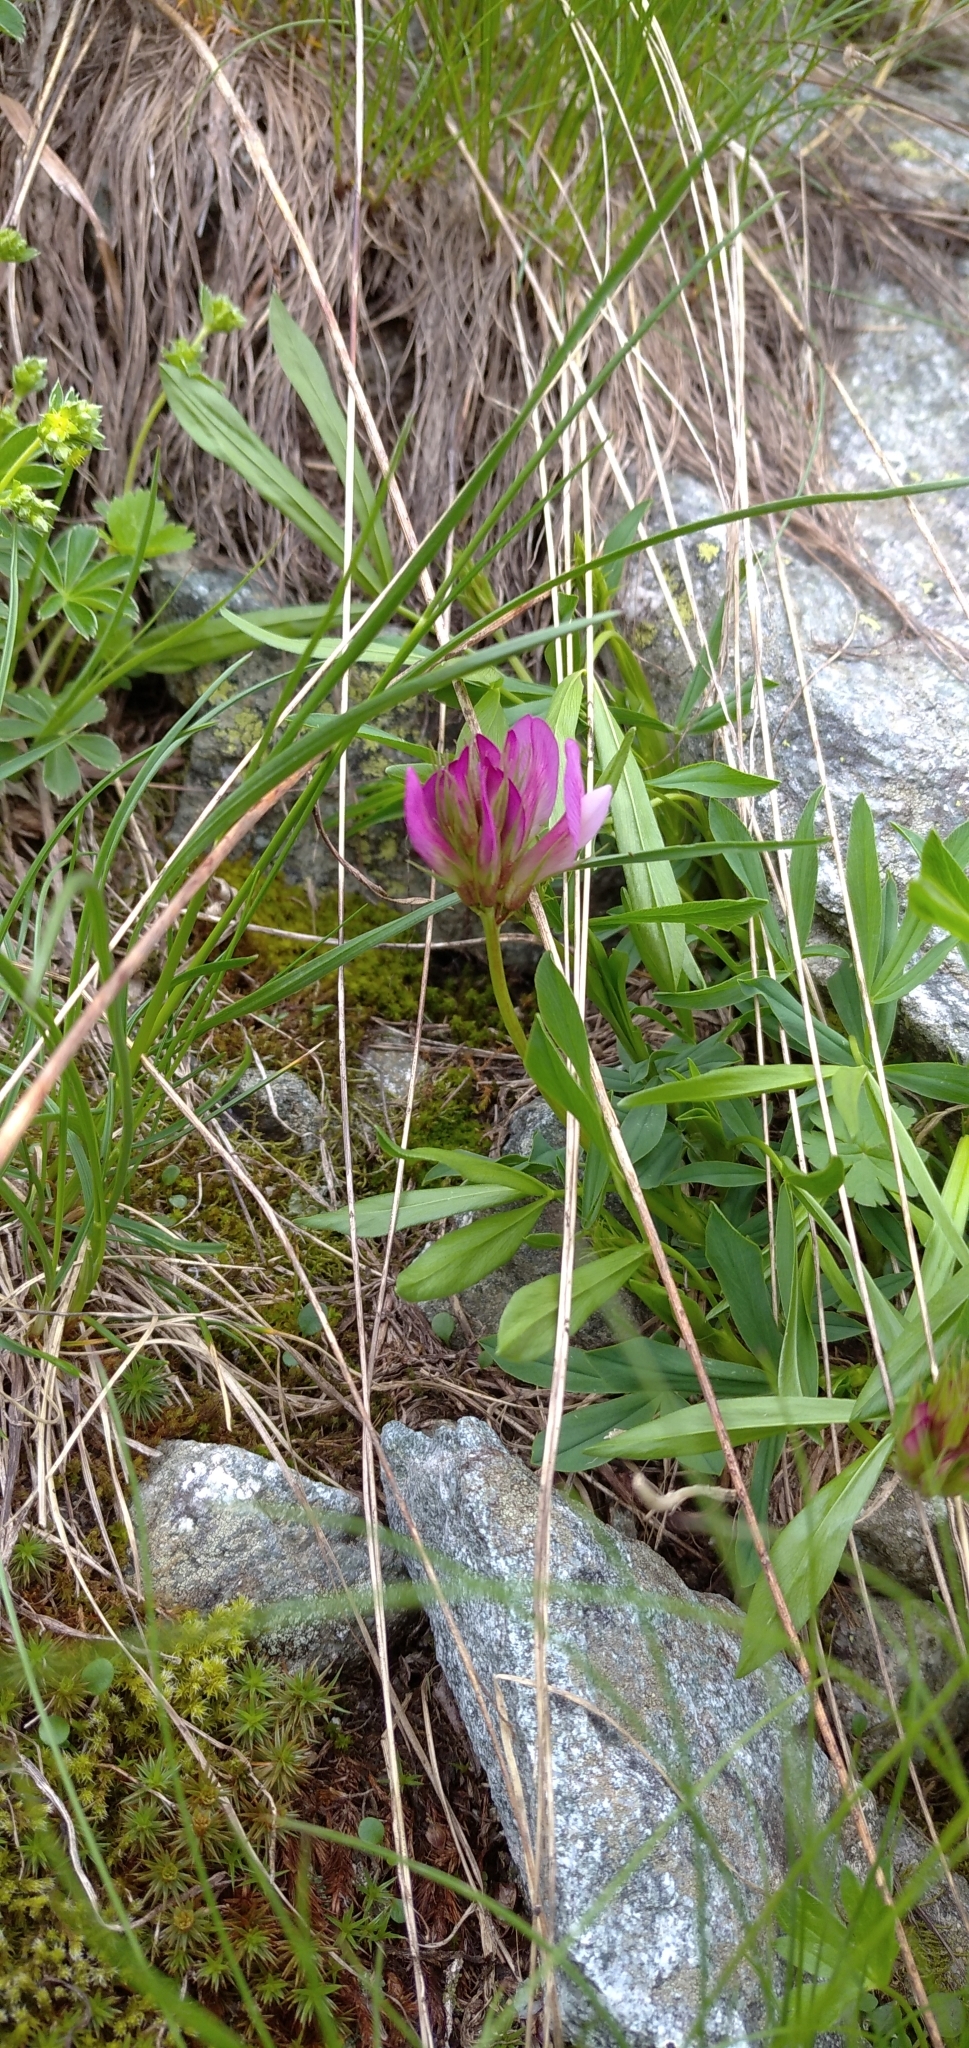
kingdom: Plantae
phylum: Tracheophyta
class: Magnoliopsida
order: Fabales
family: Fabaceae
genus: Trifolium
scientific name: Trifolium alpinum
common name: Alpine clover
